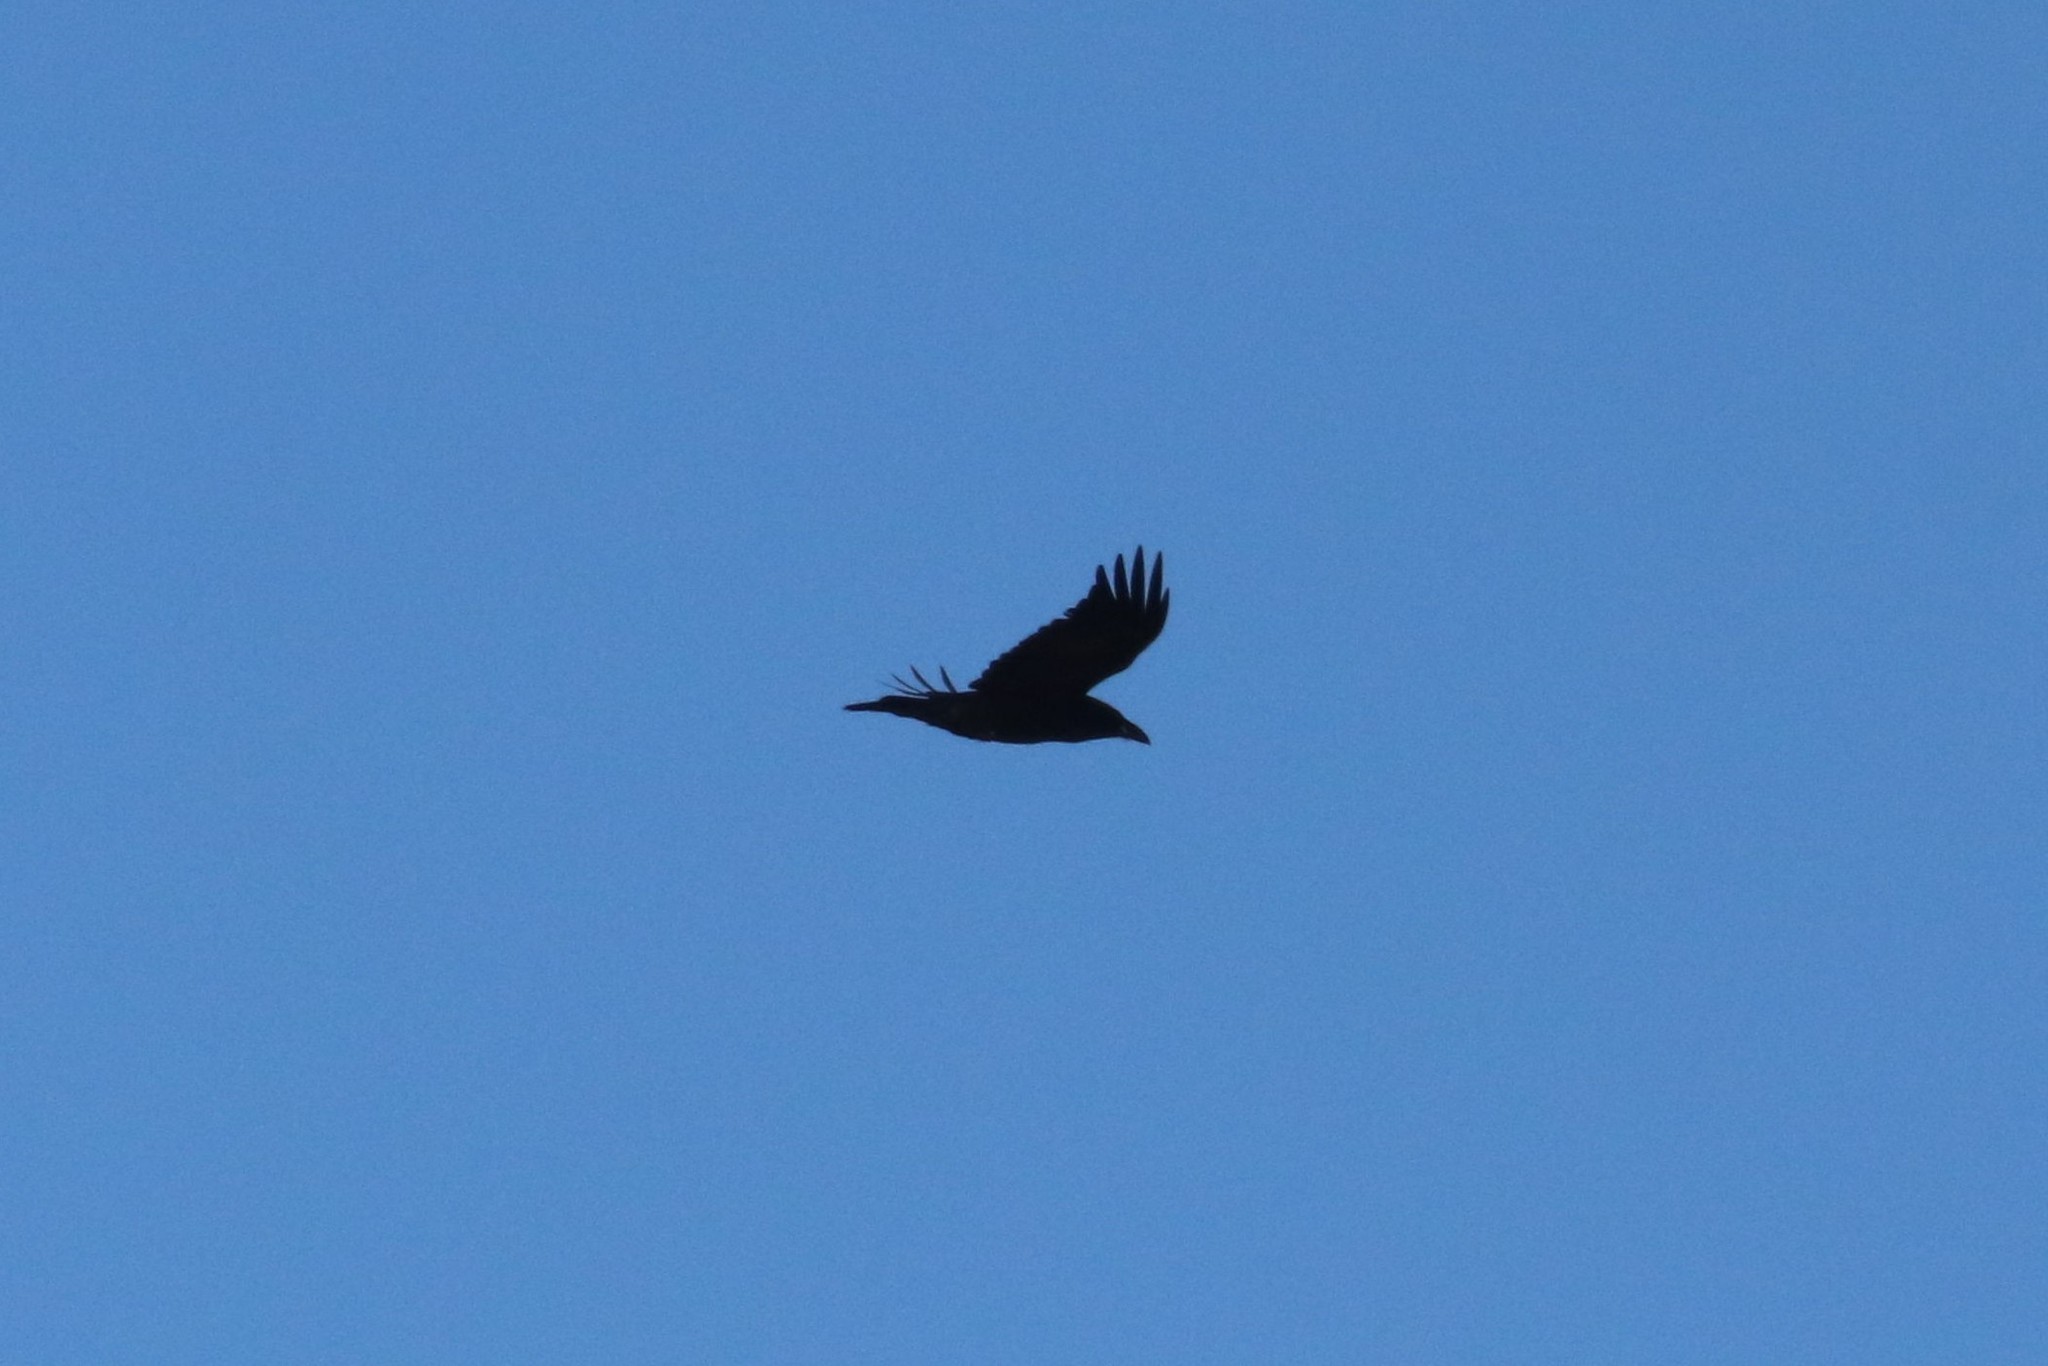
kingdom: Animalia
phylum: Chordata
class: Aves
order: Passeriformes
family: Corvidae
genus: Corvus
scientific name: Corvus corax
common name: Common raven
